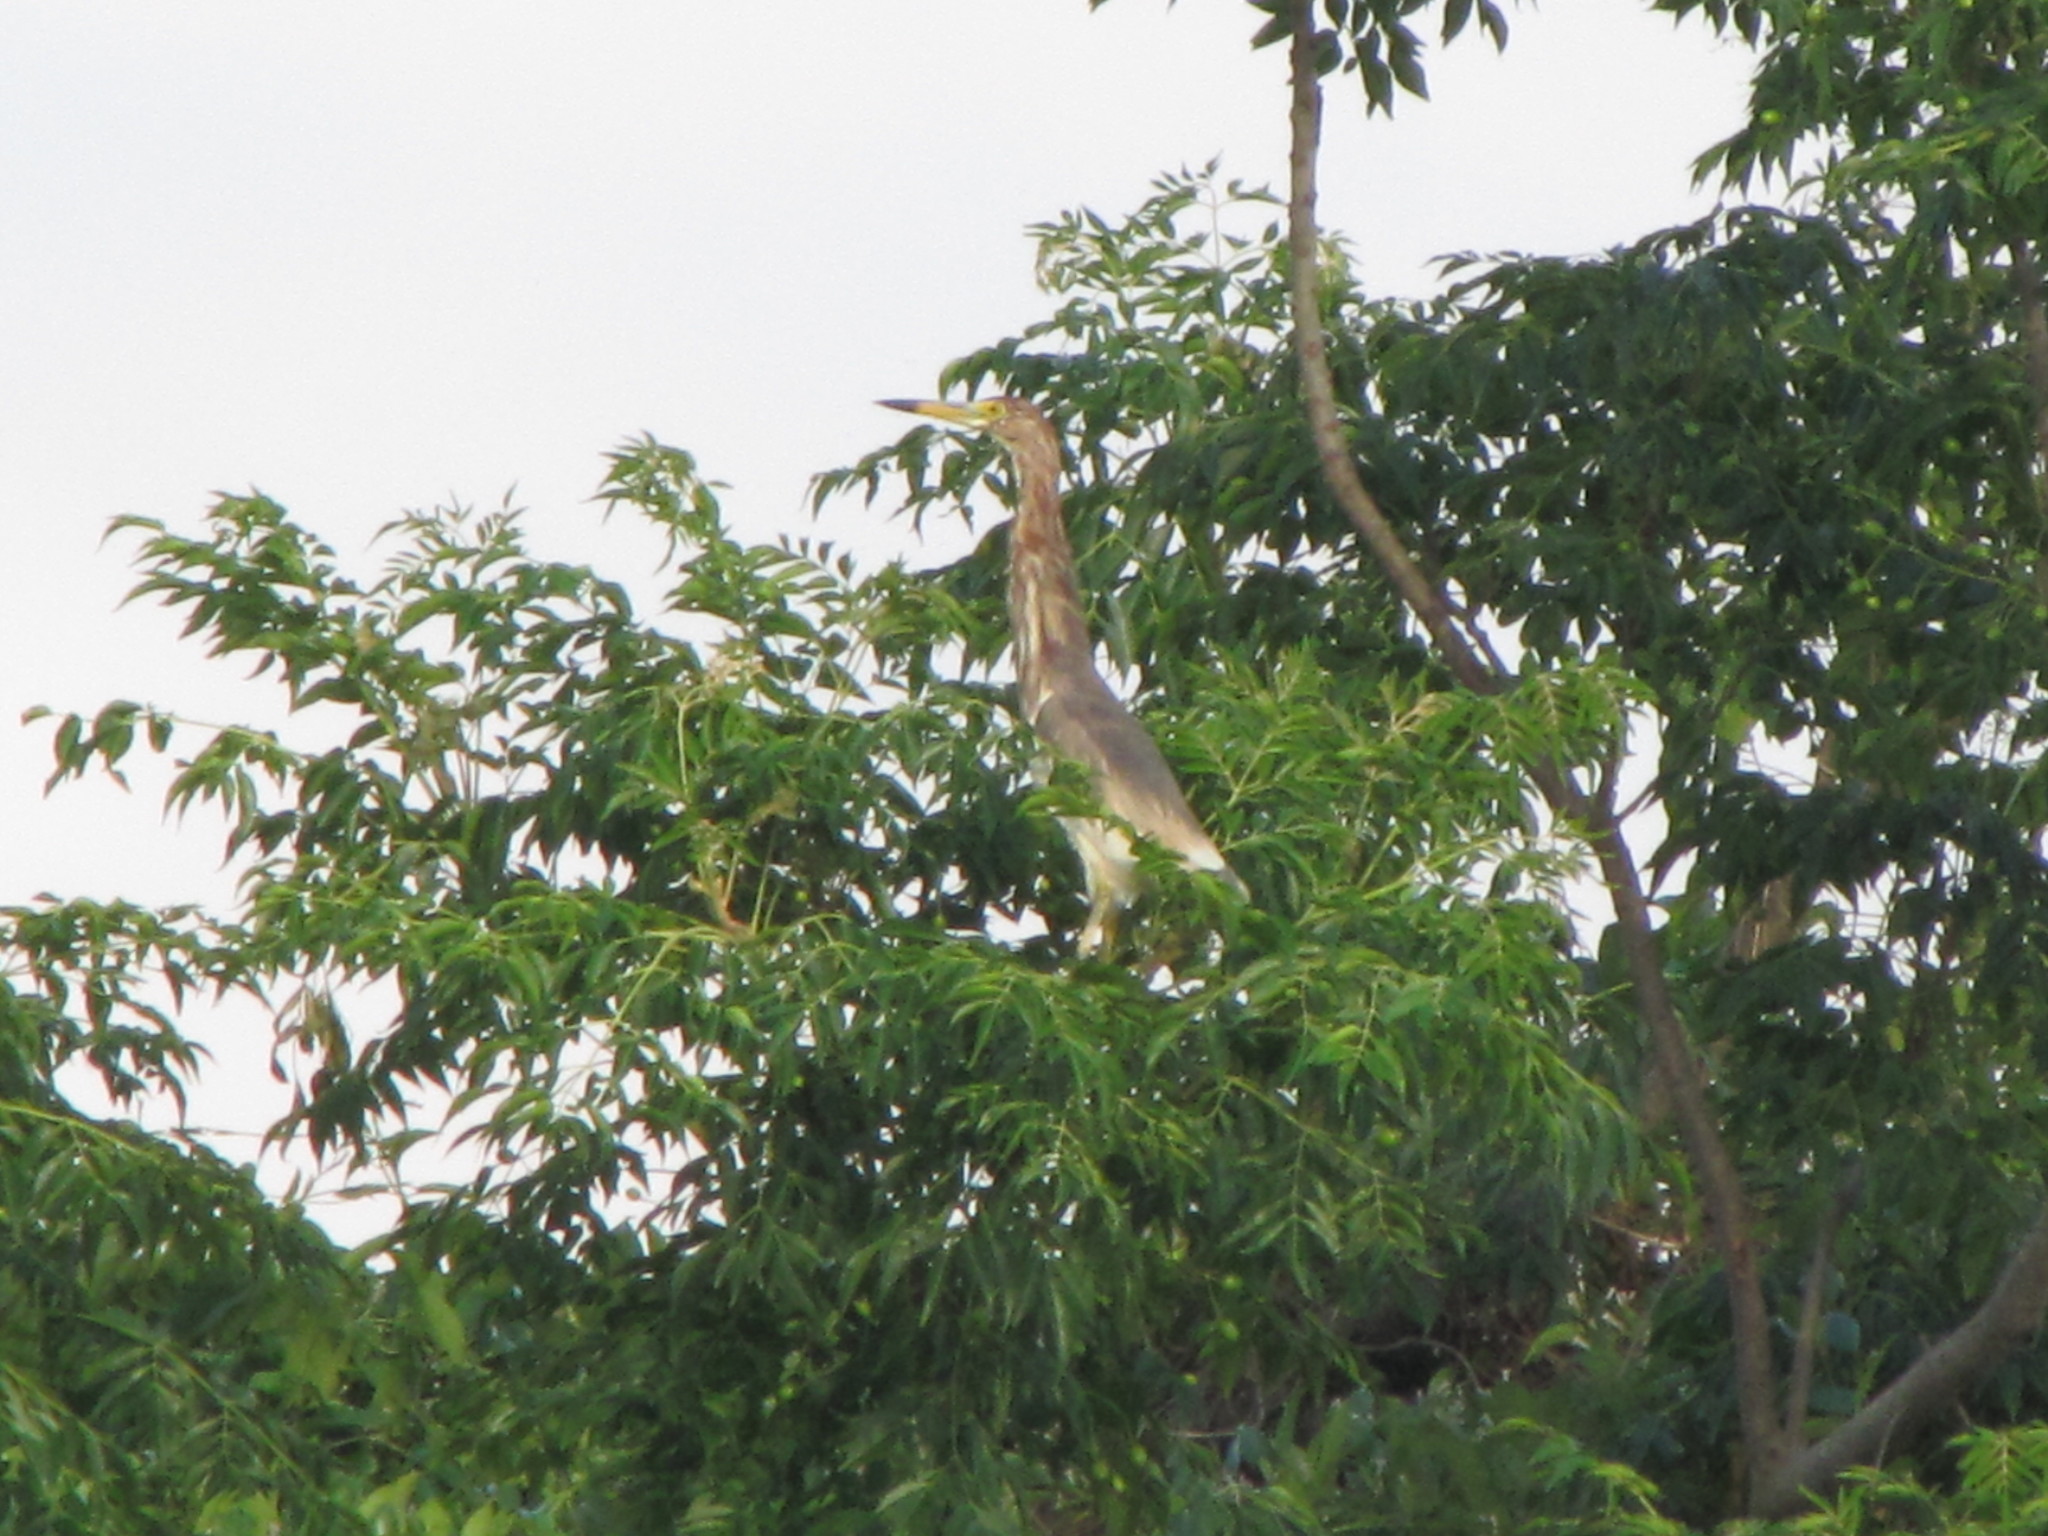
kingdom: Animalia
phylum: Chordata
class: Aves
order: Pelecaniformes
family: Ardeidae
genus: Ardeola
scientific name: Ardeola bacchus
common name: Chinese pond heron
